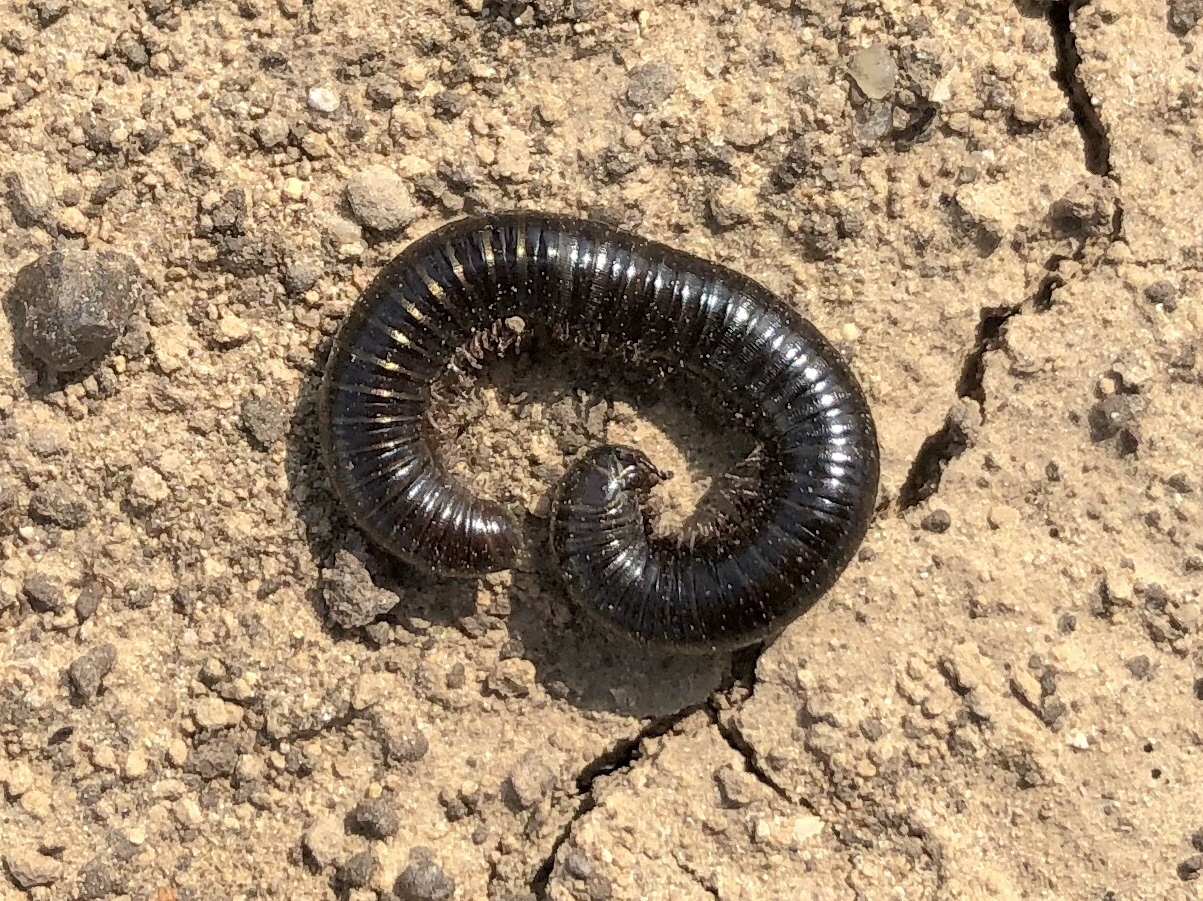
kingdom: Animalia
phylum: Arthropoda
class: Diplopoda
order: Julida
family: Julidae
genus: Cylindroiulus
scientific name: Cylindroiulus caeruleocinctus
